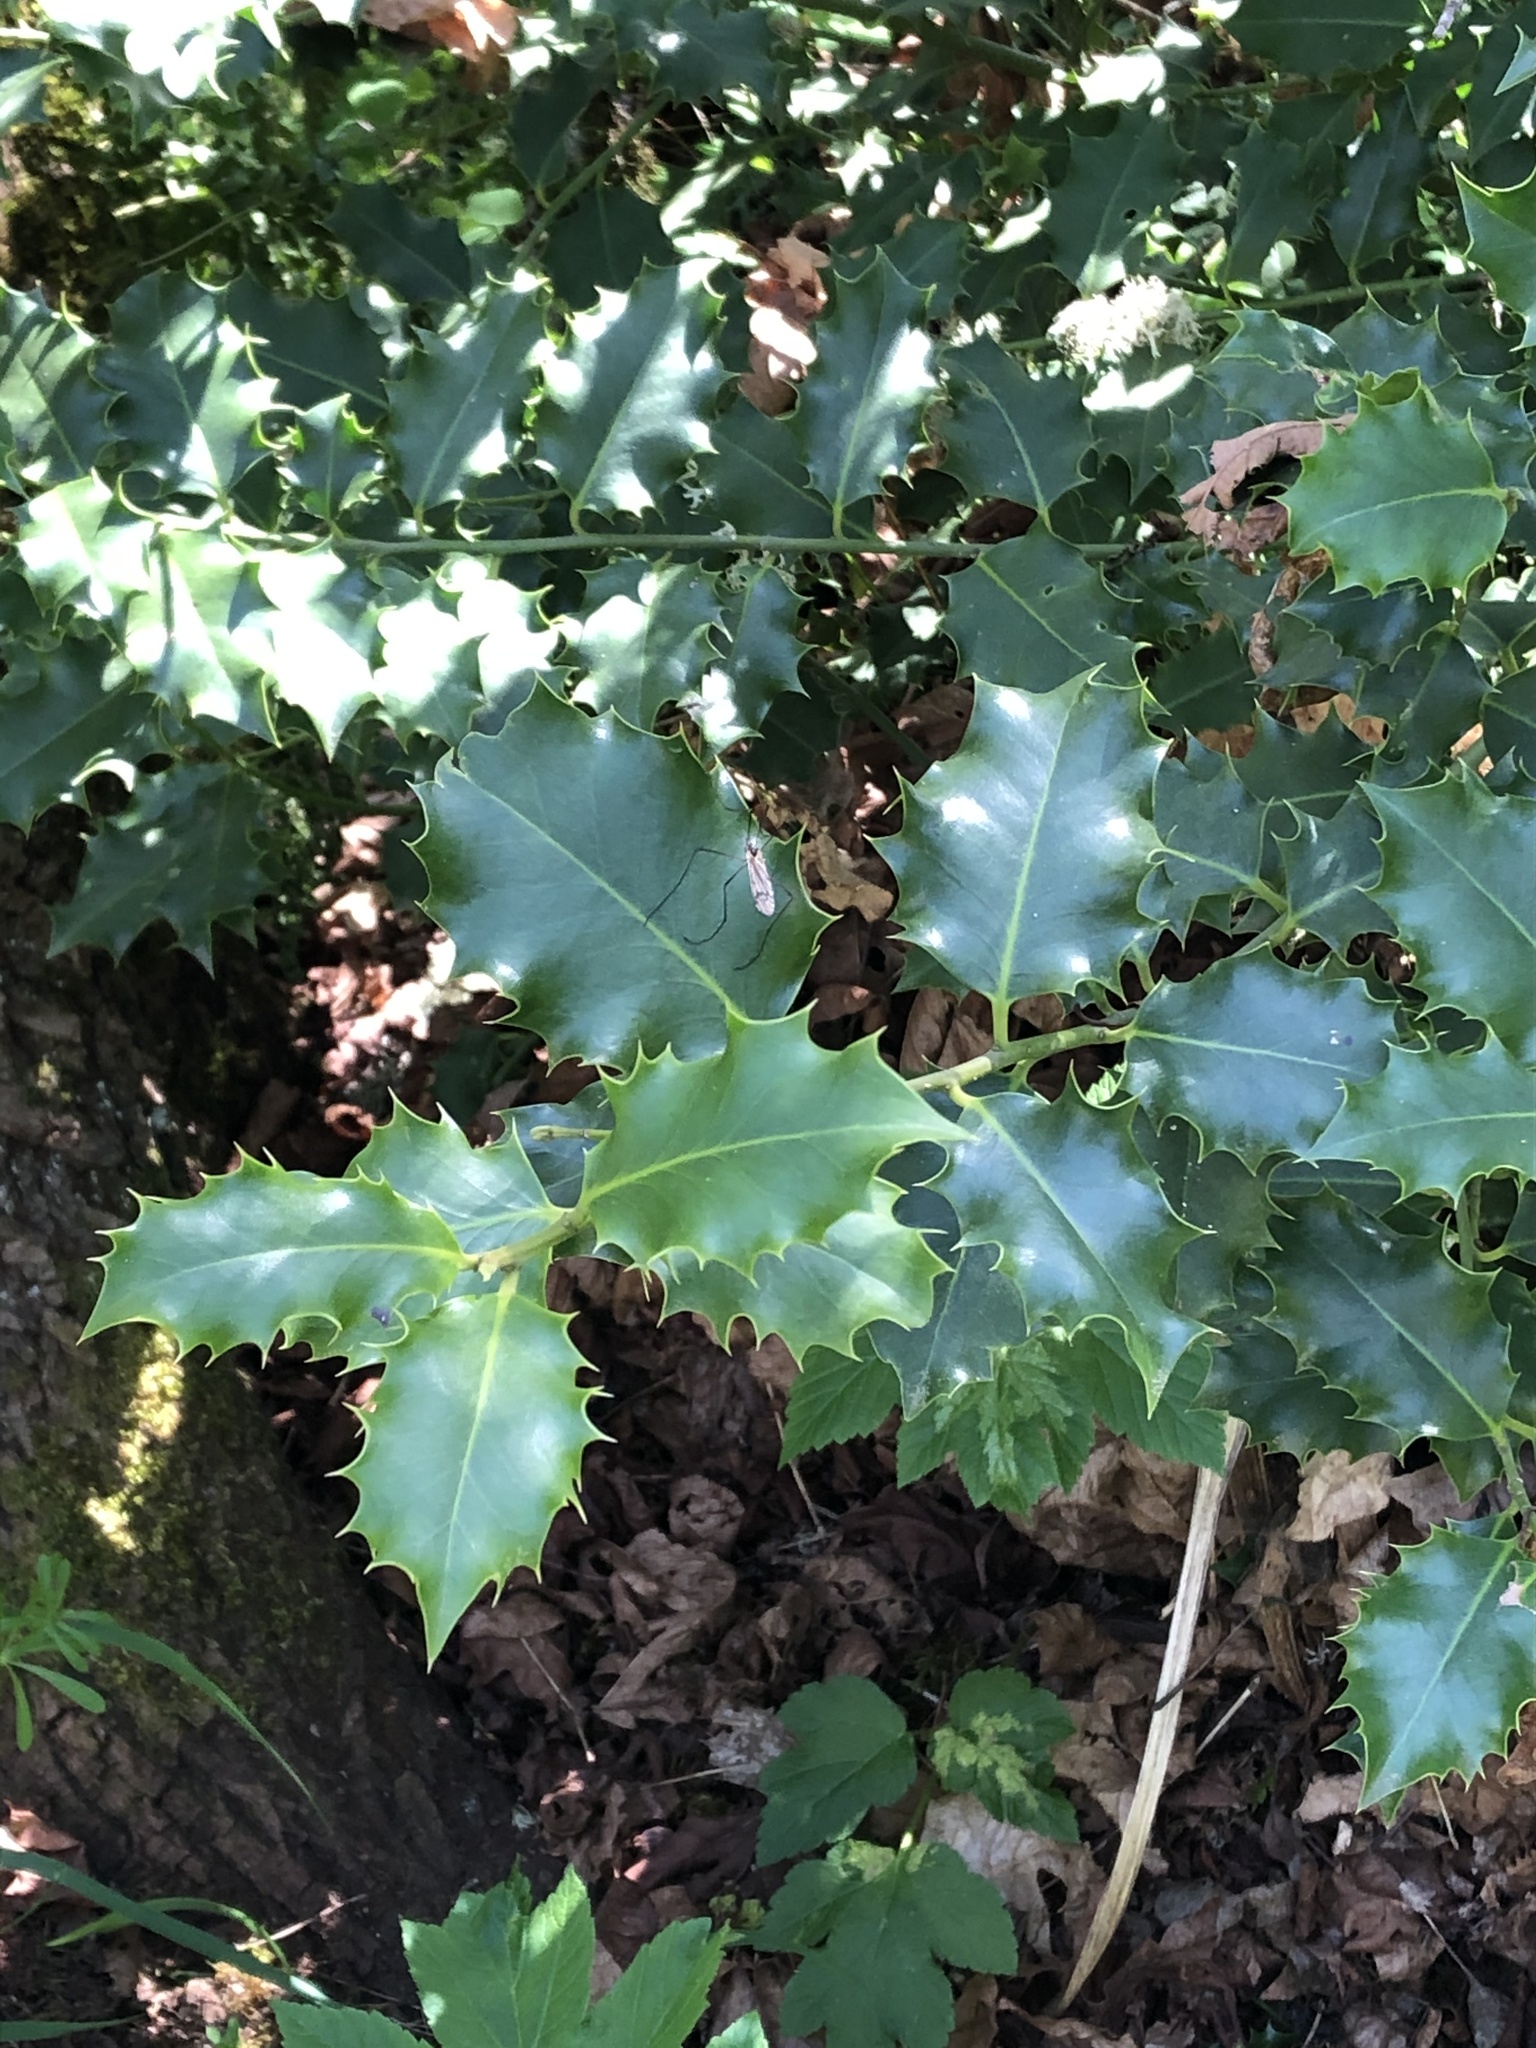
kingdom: Plantae
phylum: Tracheophyta
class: Magnoliopsida
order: Aquifoliales
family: Aquifoliaceae
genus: Ilex
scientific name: Ilex aquifolium
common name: English holly
